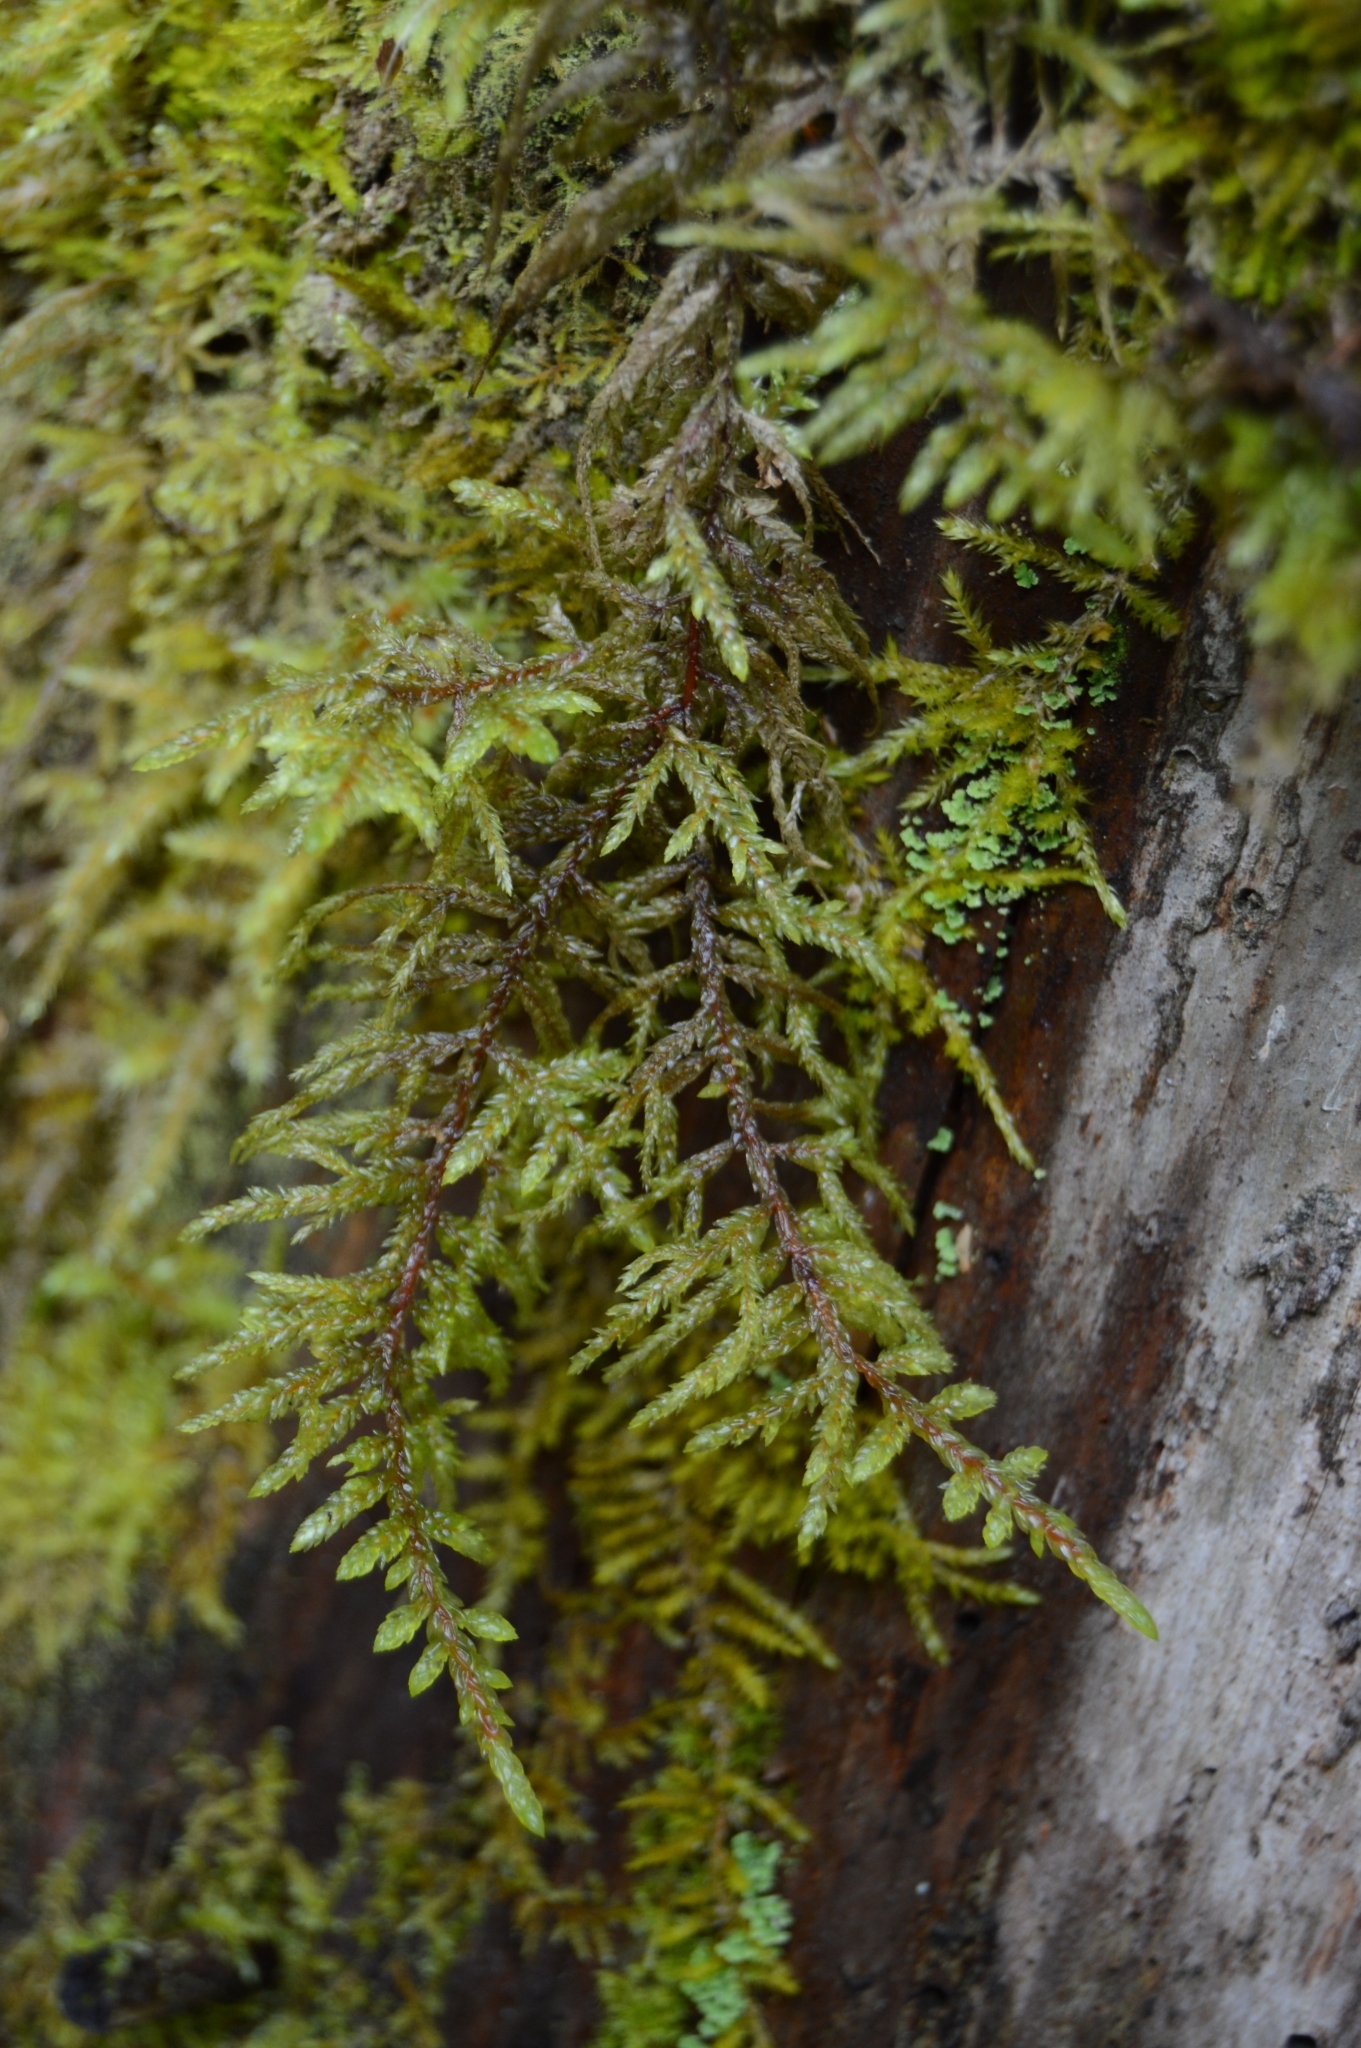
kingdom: Plantae
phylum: Bryophyta
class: Bryopsida
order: Hypnales
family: Hylocomiaceae
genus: Pleurozium
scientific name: Pleurozium schreberi
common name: Red-stemmed feather moss
